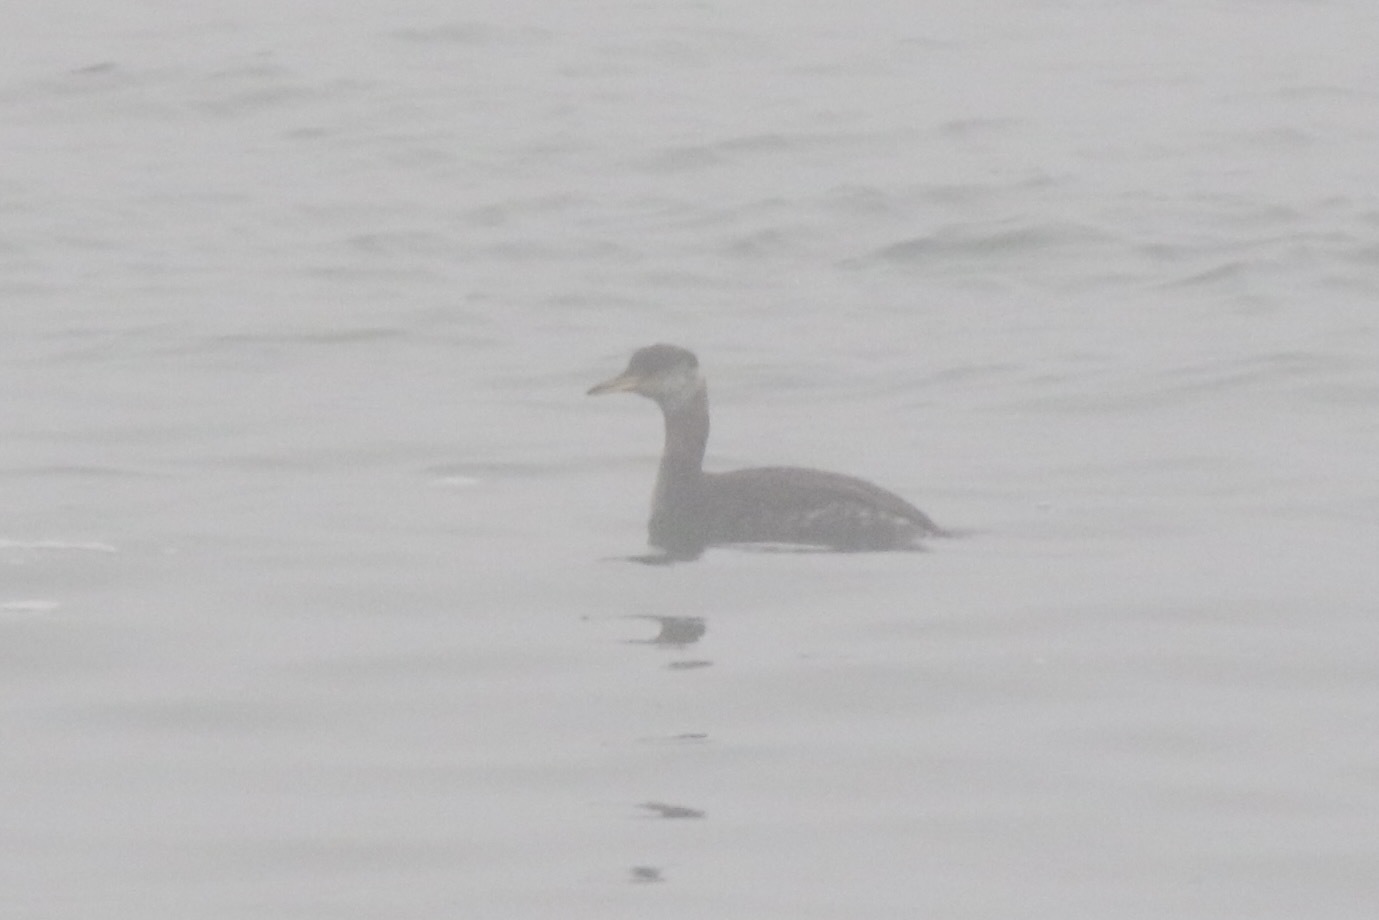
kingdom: Animalia
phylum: Chordata
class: Aves
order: Podicipediformes
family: Podicipedidae
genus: Podiceps
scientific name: Podiceps grisegena
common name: Red-necked grebe
